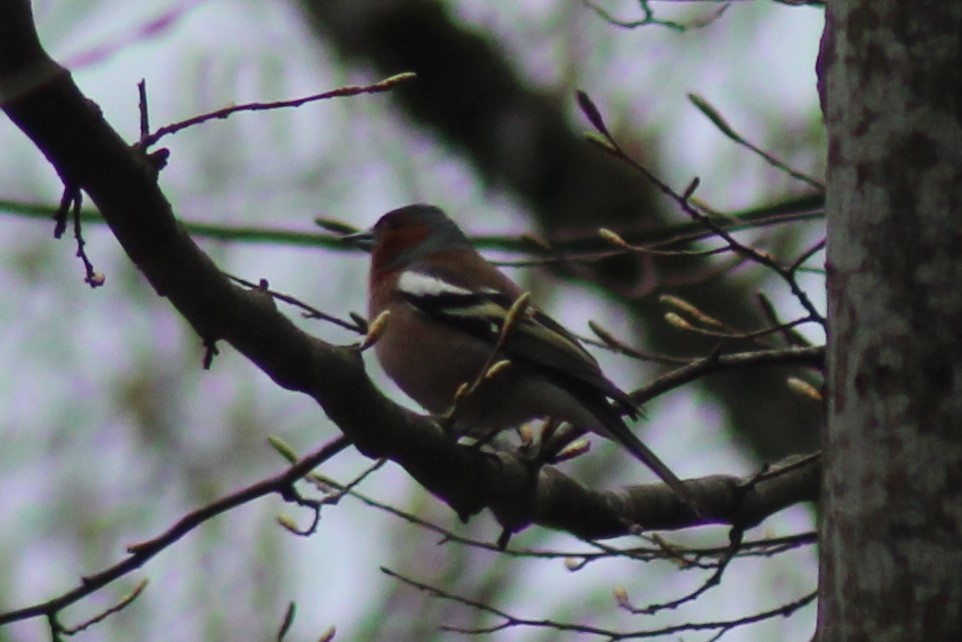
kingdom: Animalia
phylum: Chordata
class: Aves
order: Passeriformes
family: Fringillidae
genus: Fringilla
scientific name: Fringilla coelebs
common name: Common chaffinch
